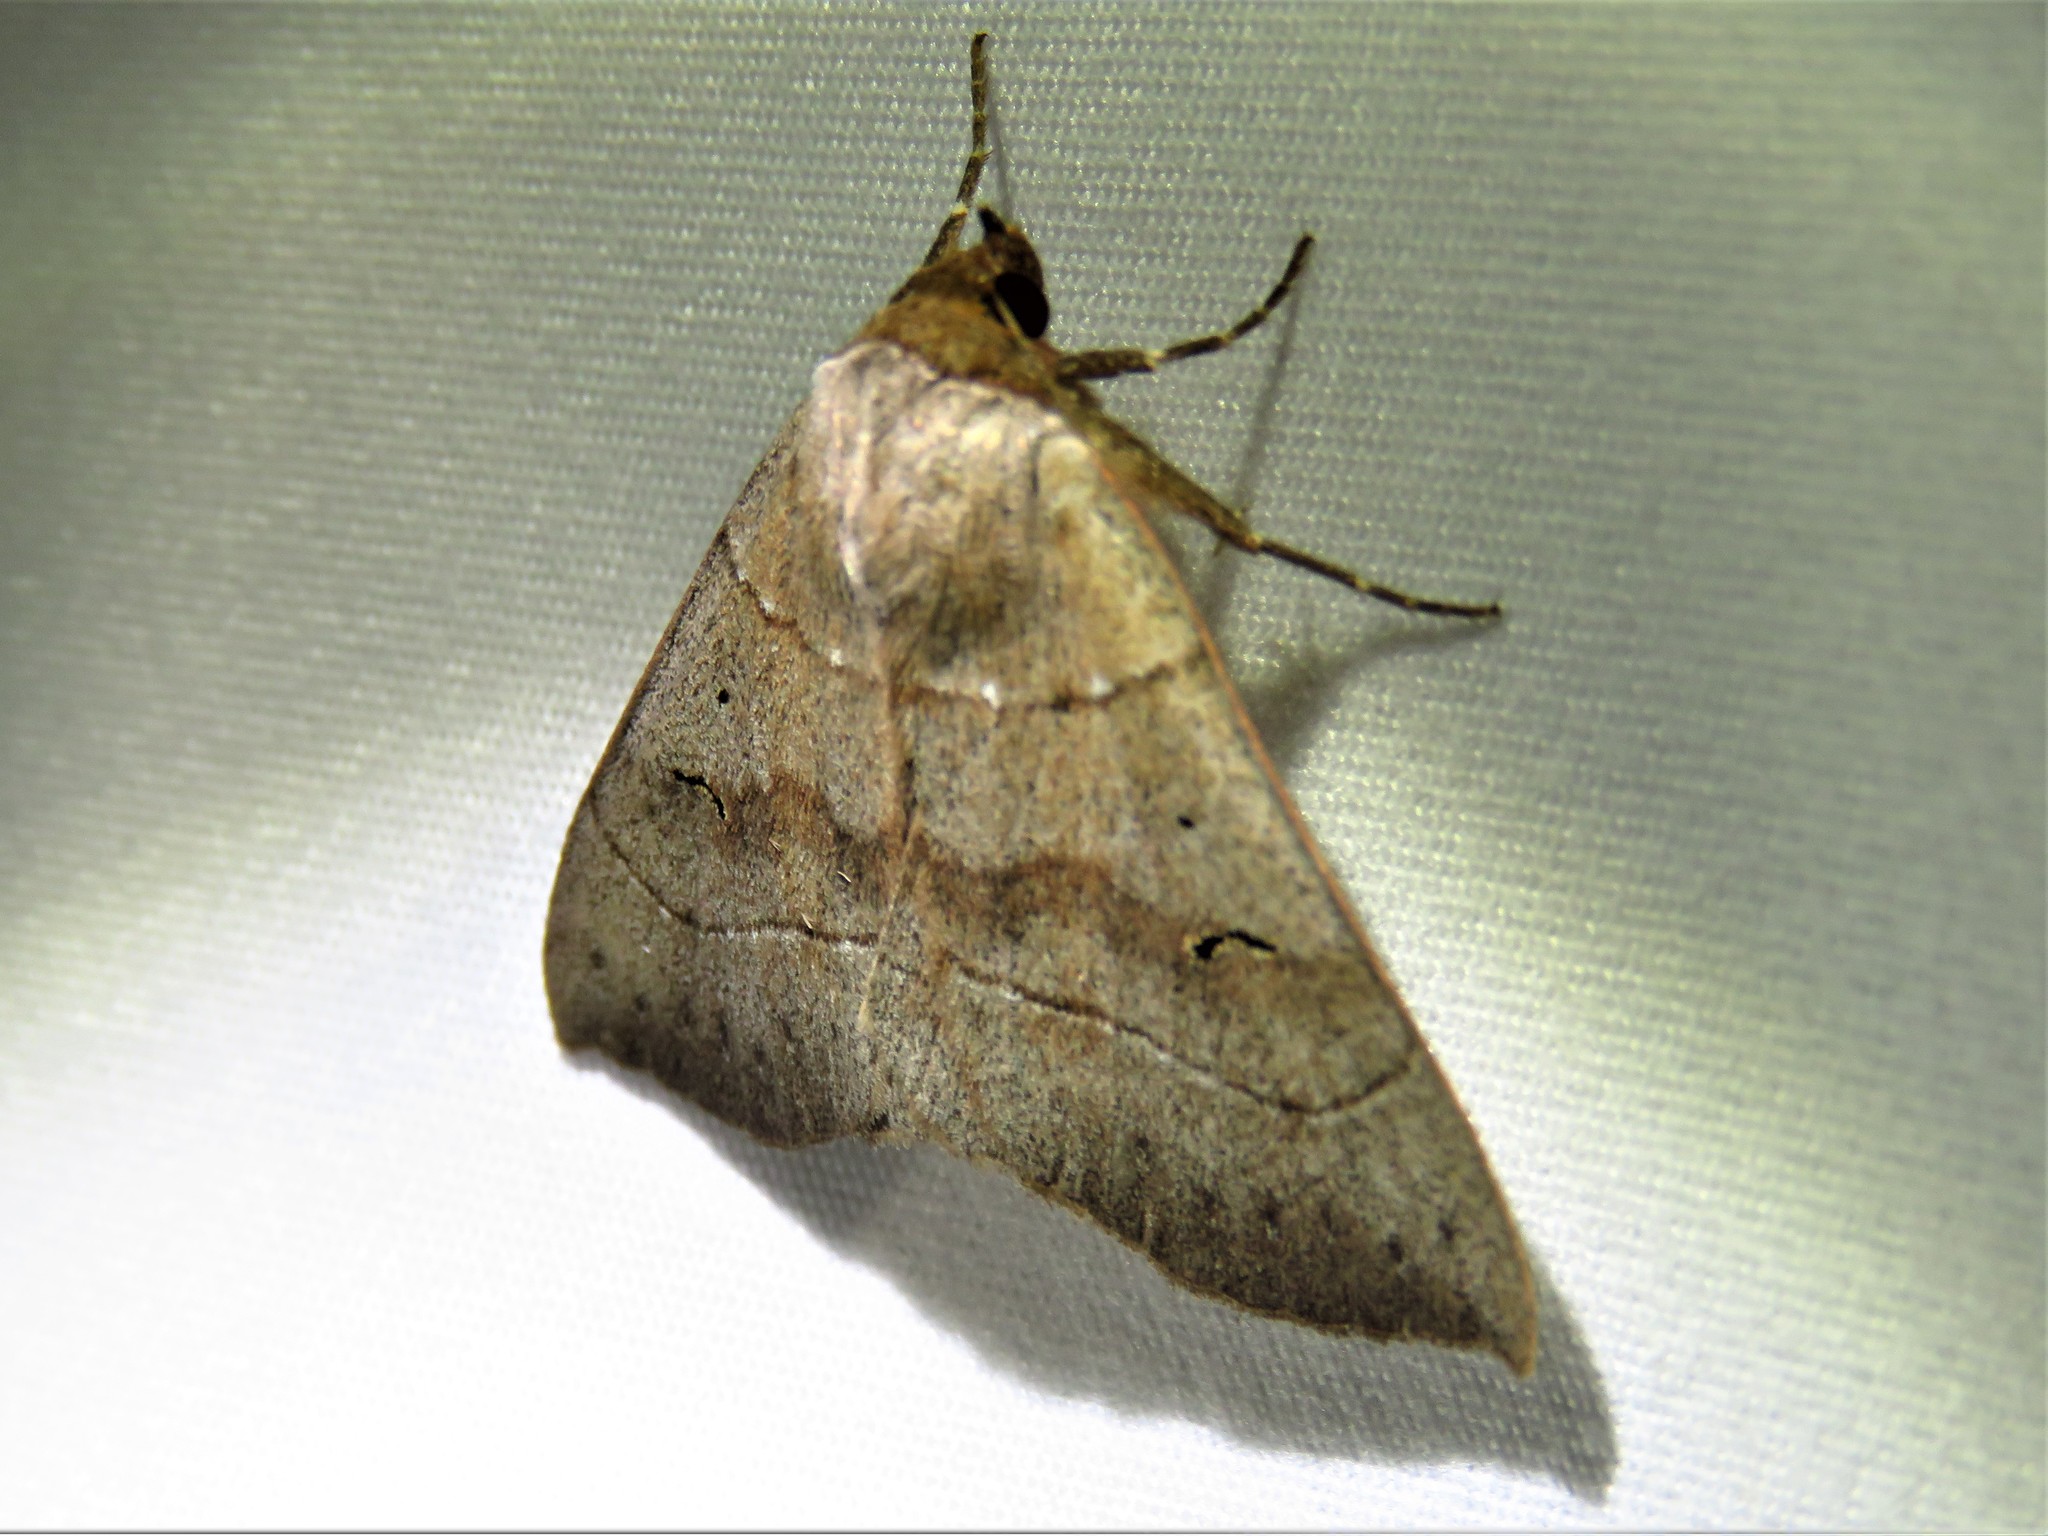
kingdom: Animalia
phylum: Arthropoda
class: Insecta
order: Lepidoptera
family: Erebidae
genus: Panopoda
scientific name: Panopoda carneicosta
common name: Brown panopoda moth
